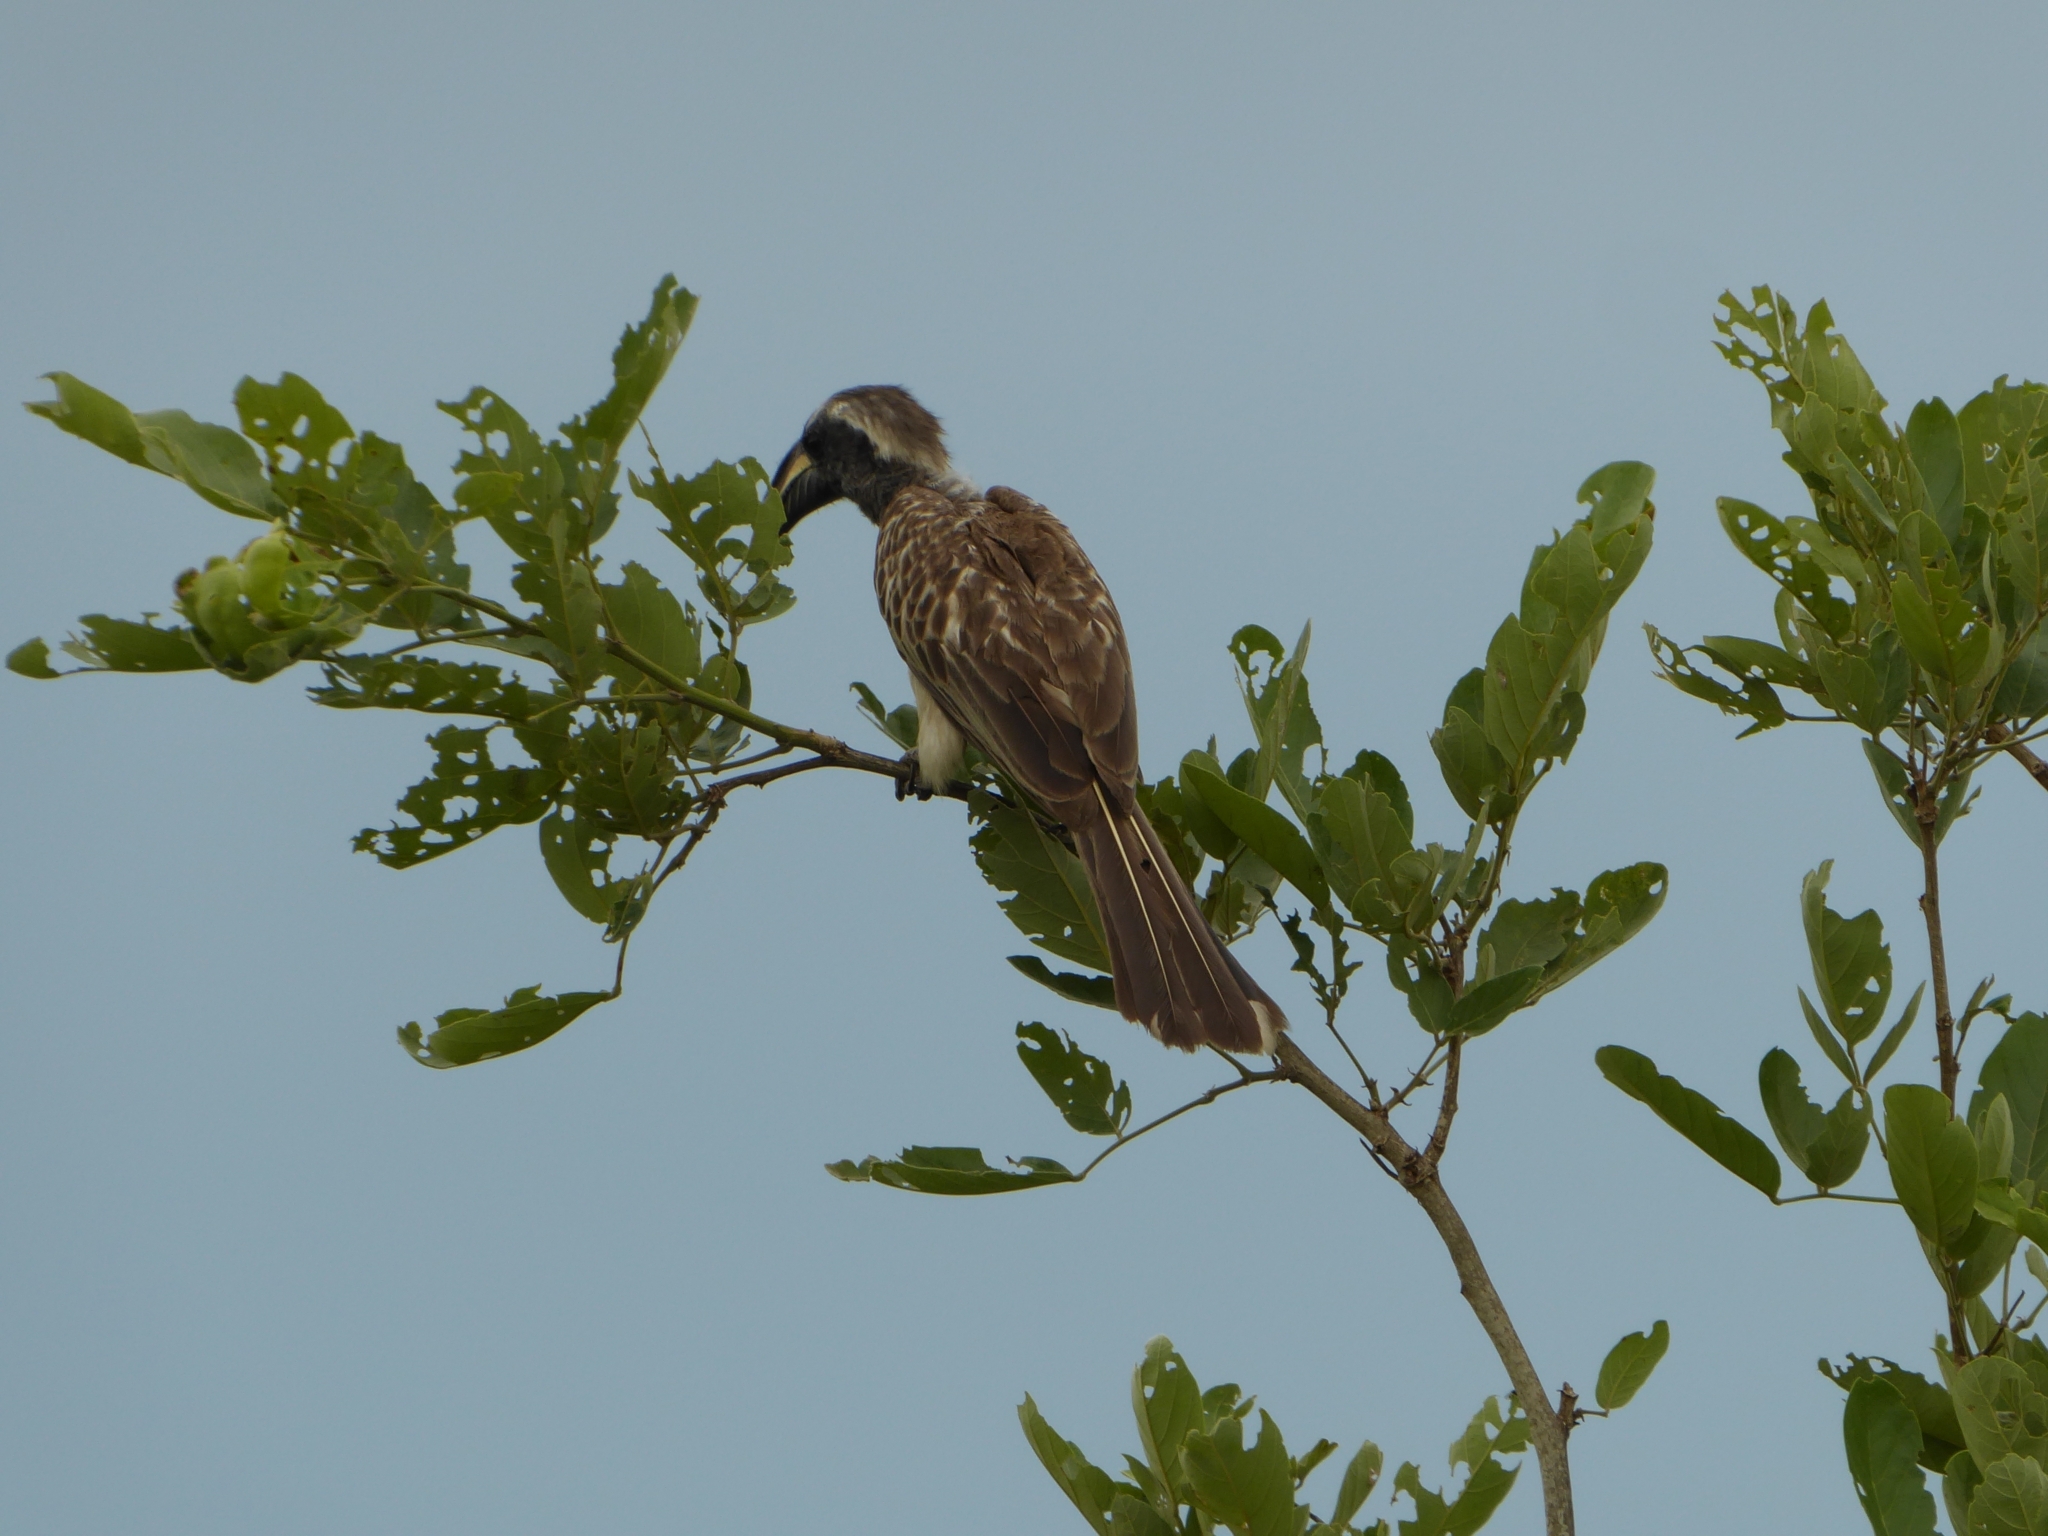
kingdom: Animalia
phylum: Chordata
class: Aves
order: Bucerotiformes
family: Bucerotidae
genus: Lophoceros
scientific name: Lophoceros nasutus
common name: African grey hornbill
